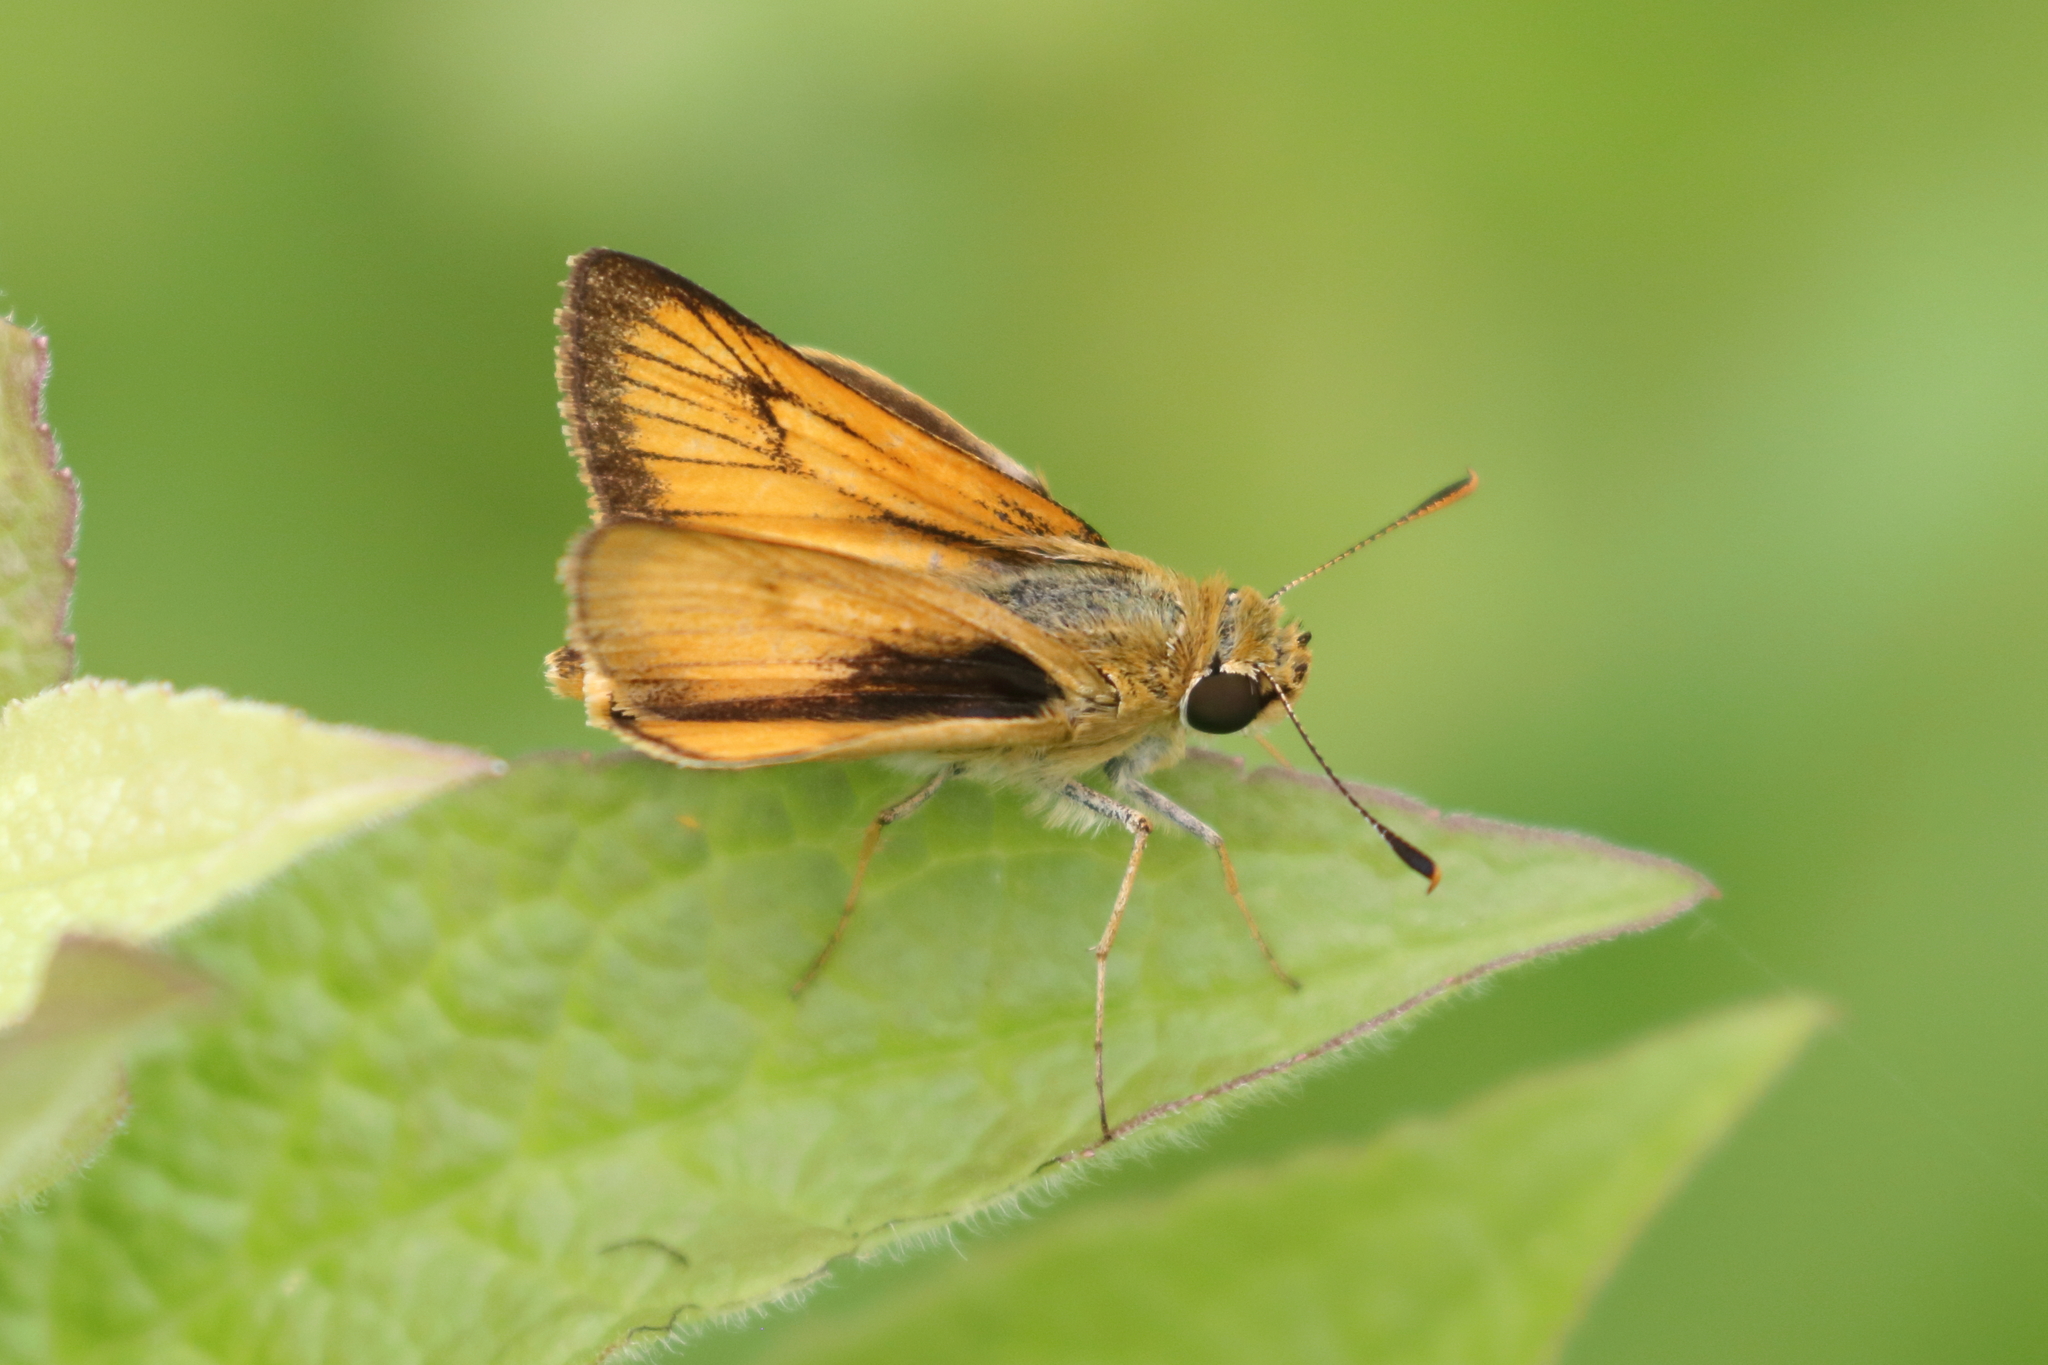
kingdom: Animalia
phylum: Arthropoda
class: Insecta
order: Lepidoptera
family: Hesperiidae
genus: Atrytone
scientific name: Atrytone delaware
